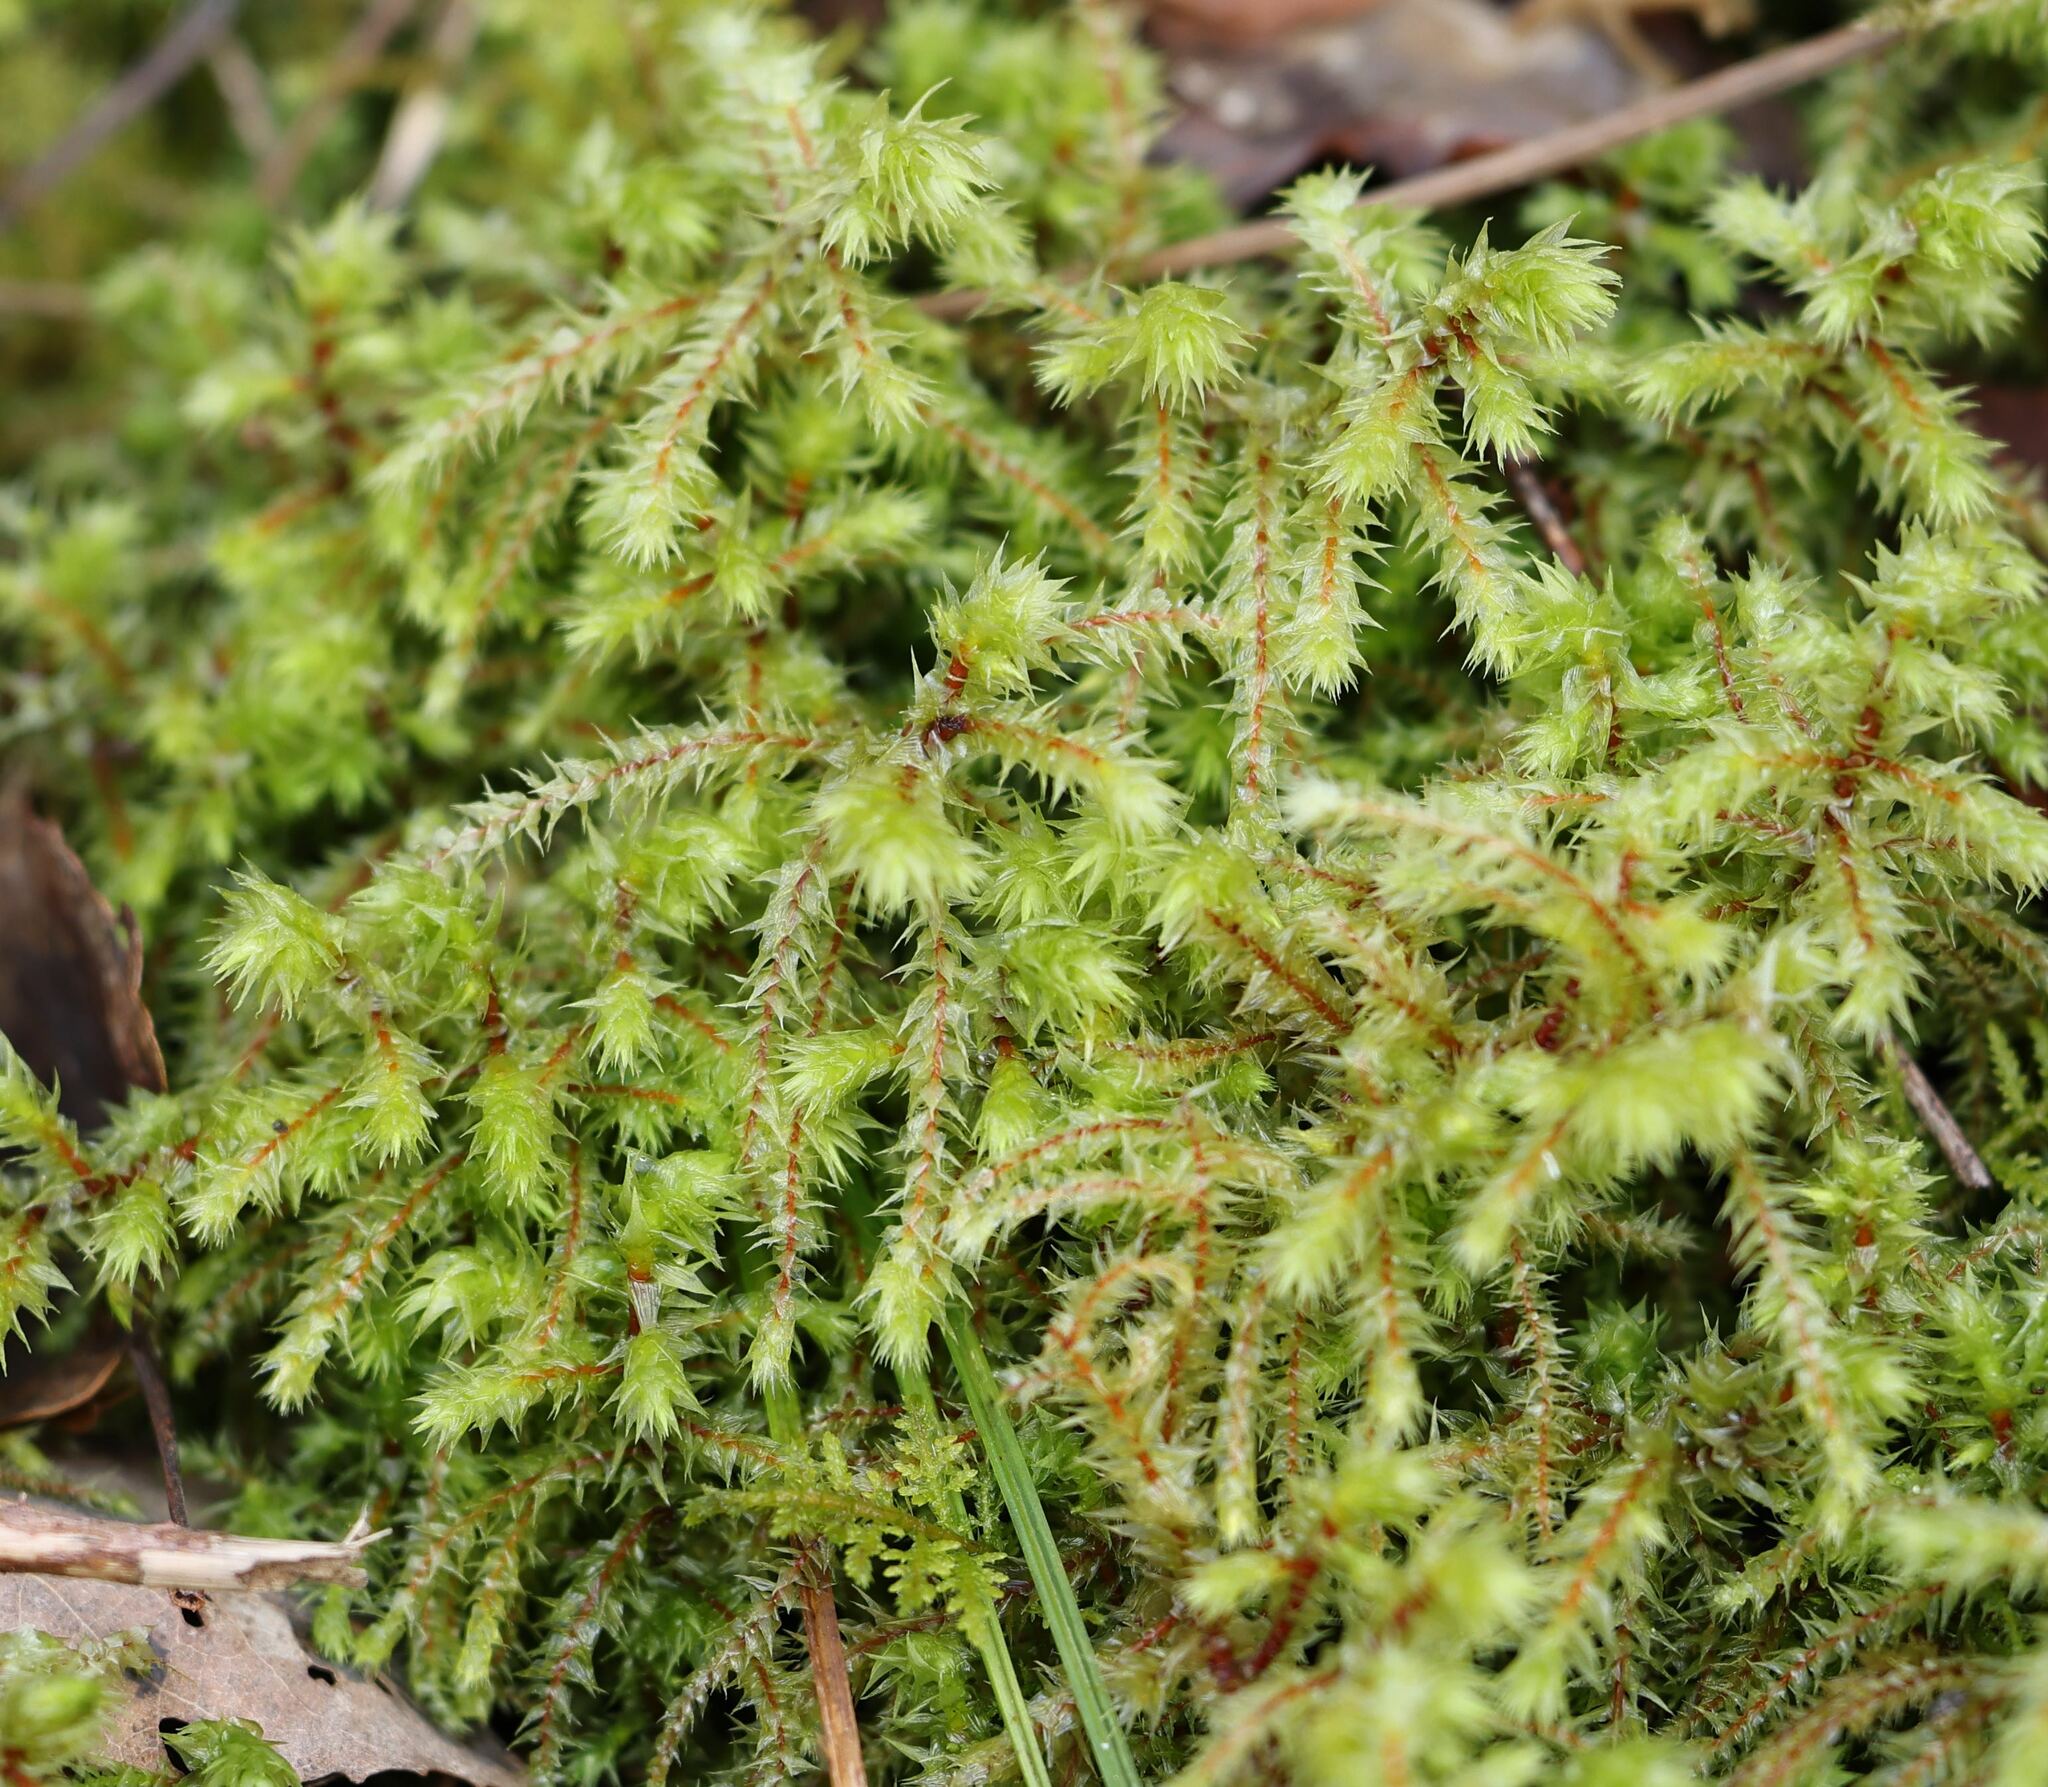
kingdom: Plantae
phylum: Bryophyta
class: Bryopsida
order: Hypnales
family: Hylocomiaceae
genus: Hylocomiadelphus
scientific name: Hylocomiadelphus triquetrus
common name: Rough goose neck moss
